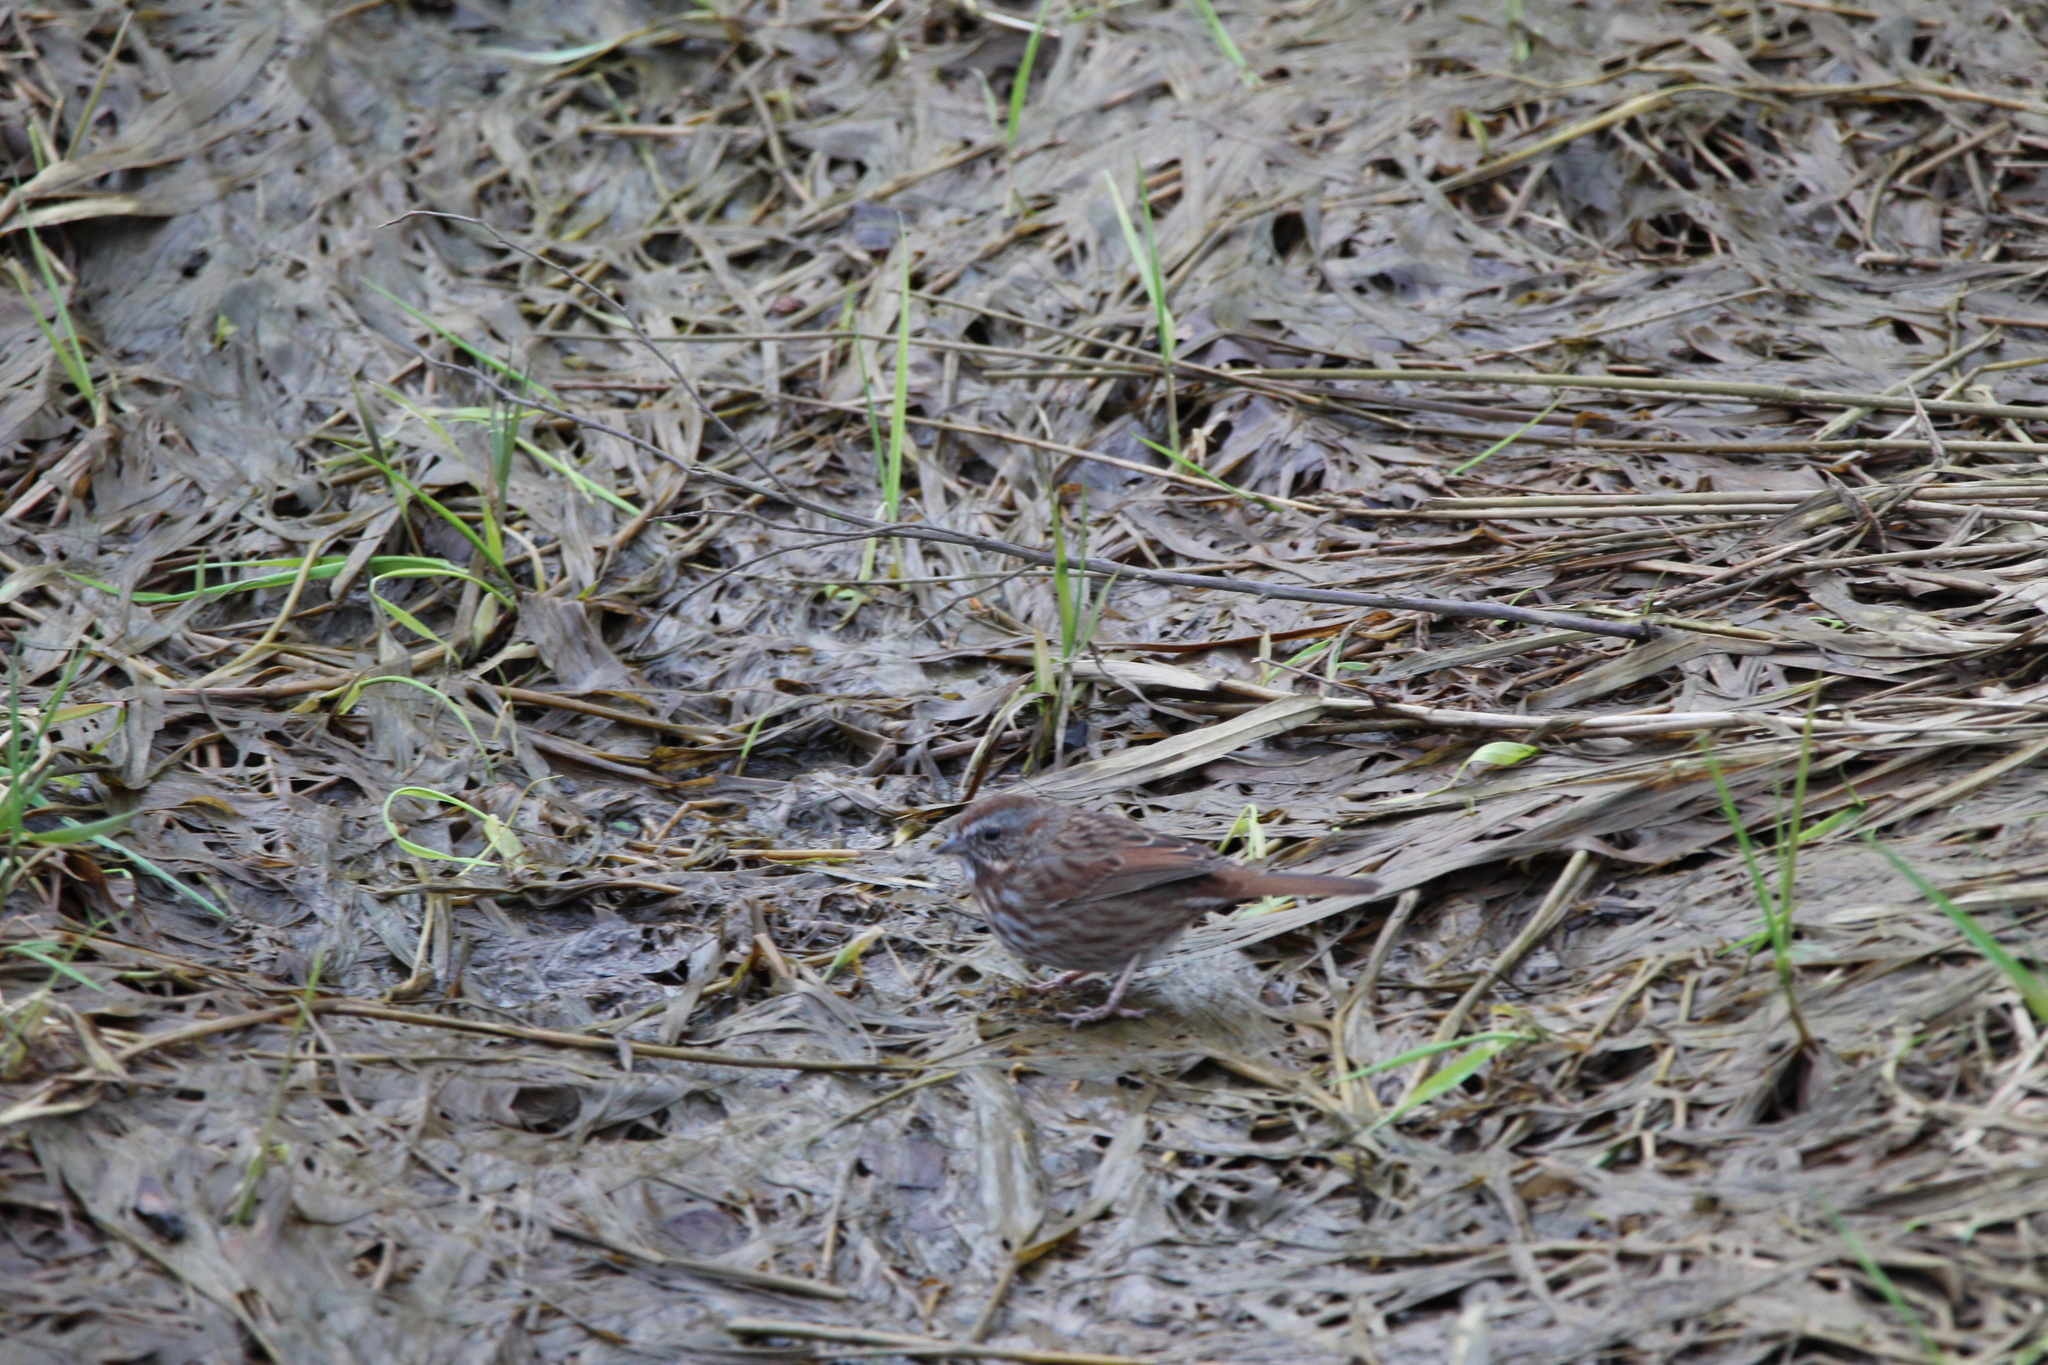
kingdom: Animalia
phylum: Chordata
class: Aves
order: Passeriformes
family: Passerellidae
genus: Melospiza
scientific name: Melospiza melodia
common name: Song sparrow
